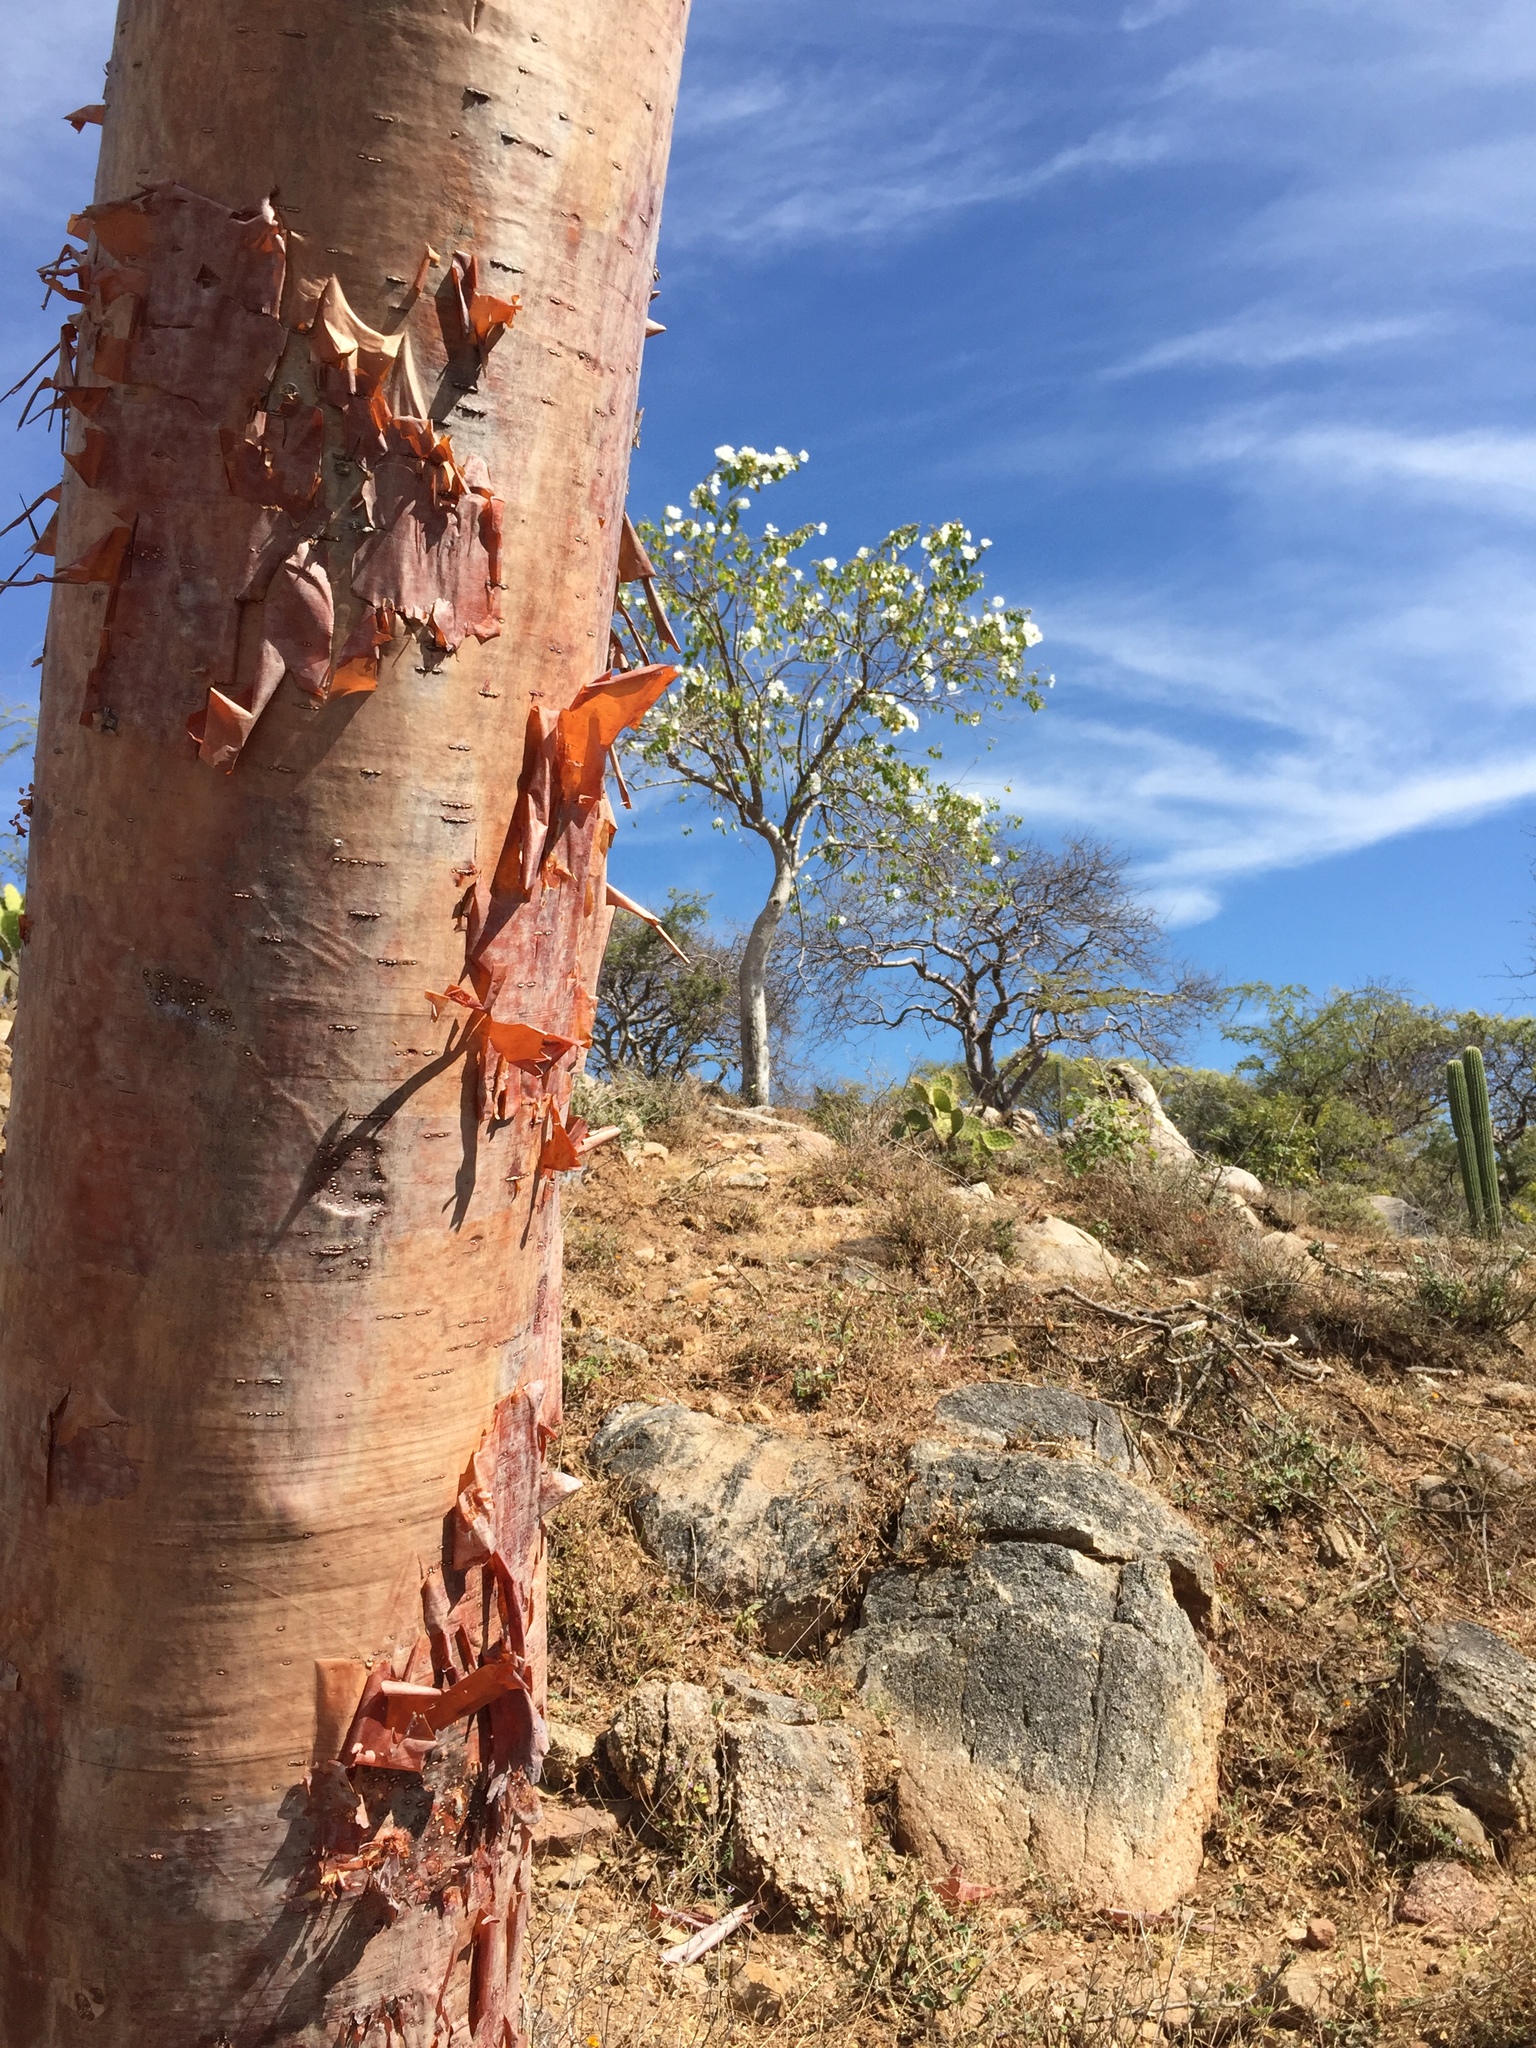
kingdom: Plantae
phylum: Tracheophyta
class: Magnoliopsida
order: Sapindales
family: Burseraceae
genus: Bursera
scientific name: Bursera simaruba
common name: Turpentine tree
